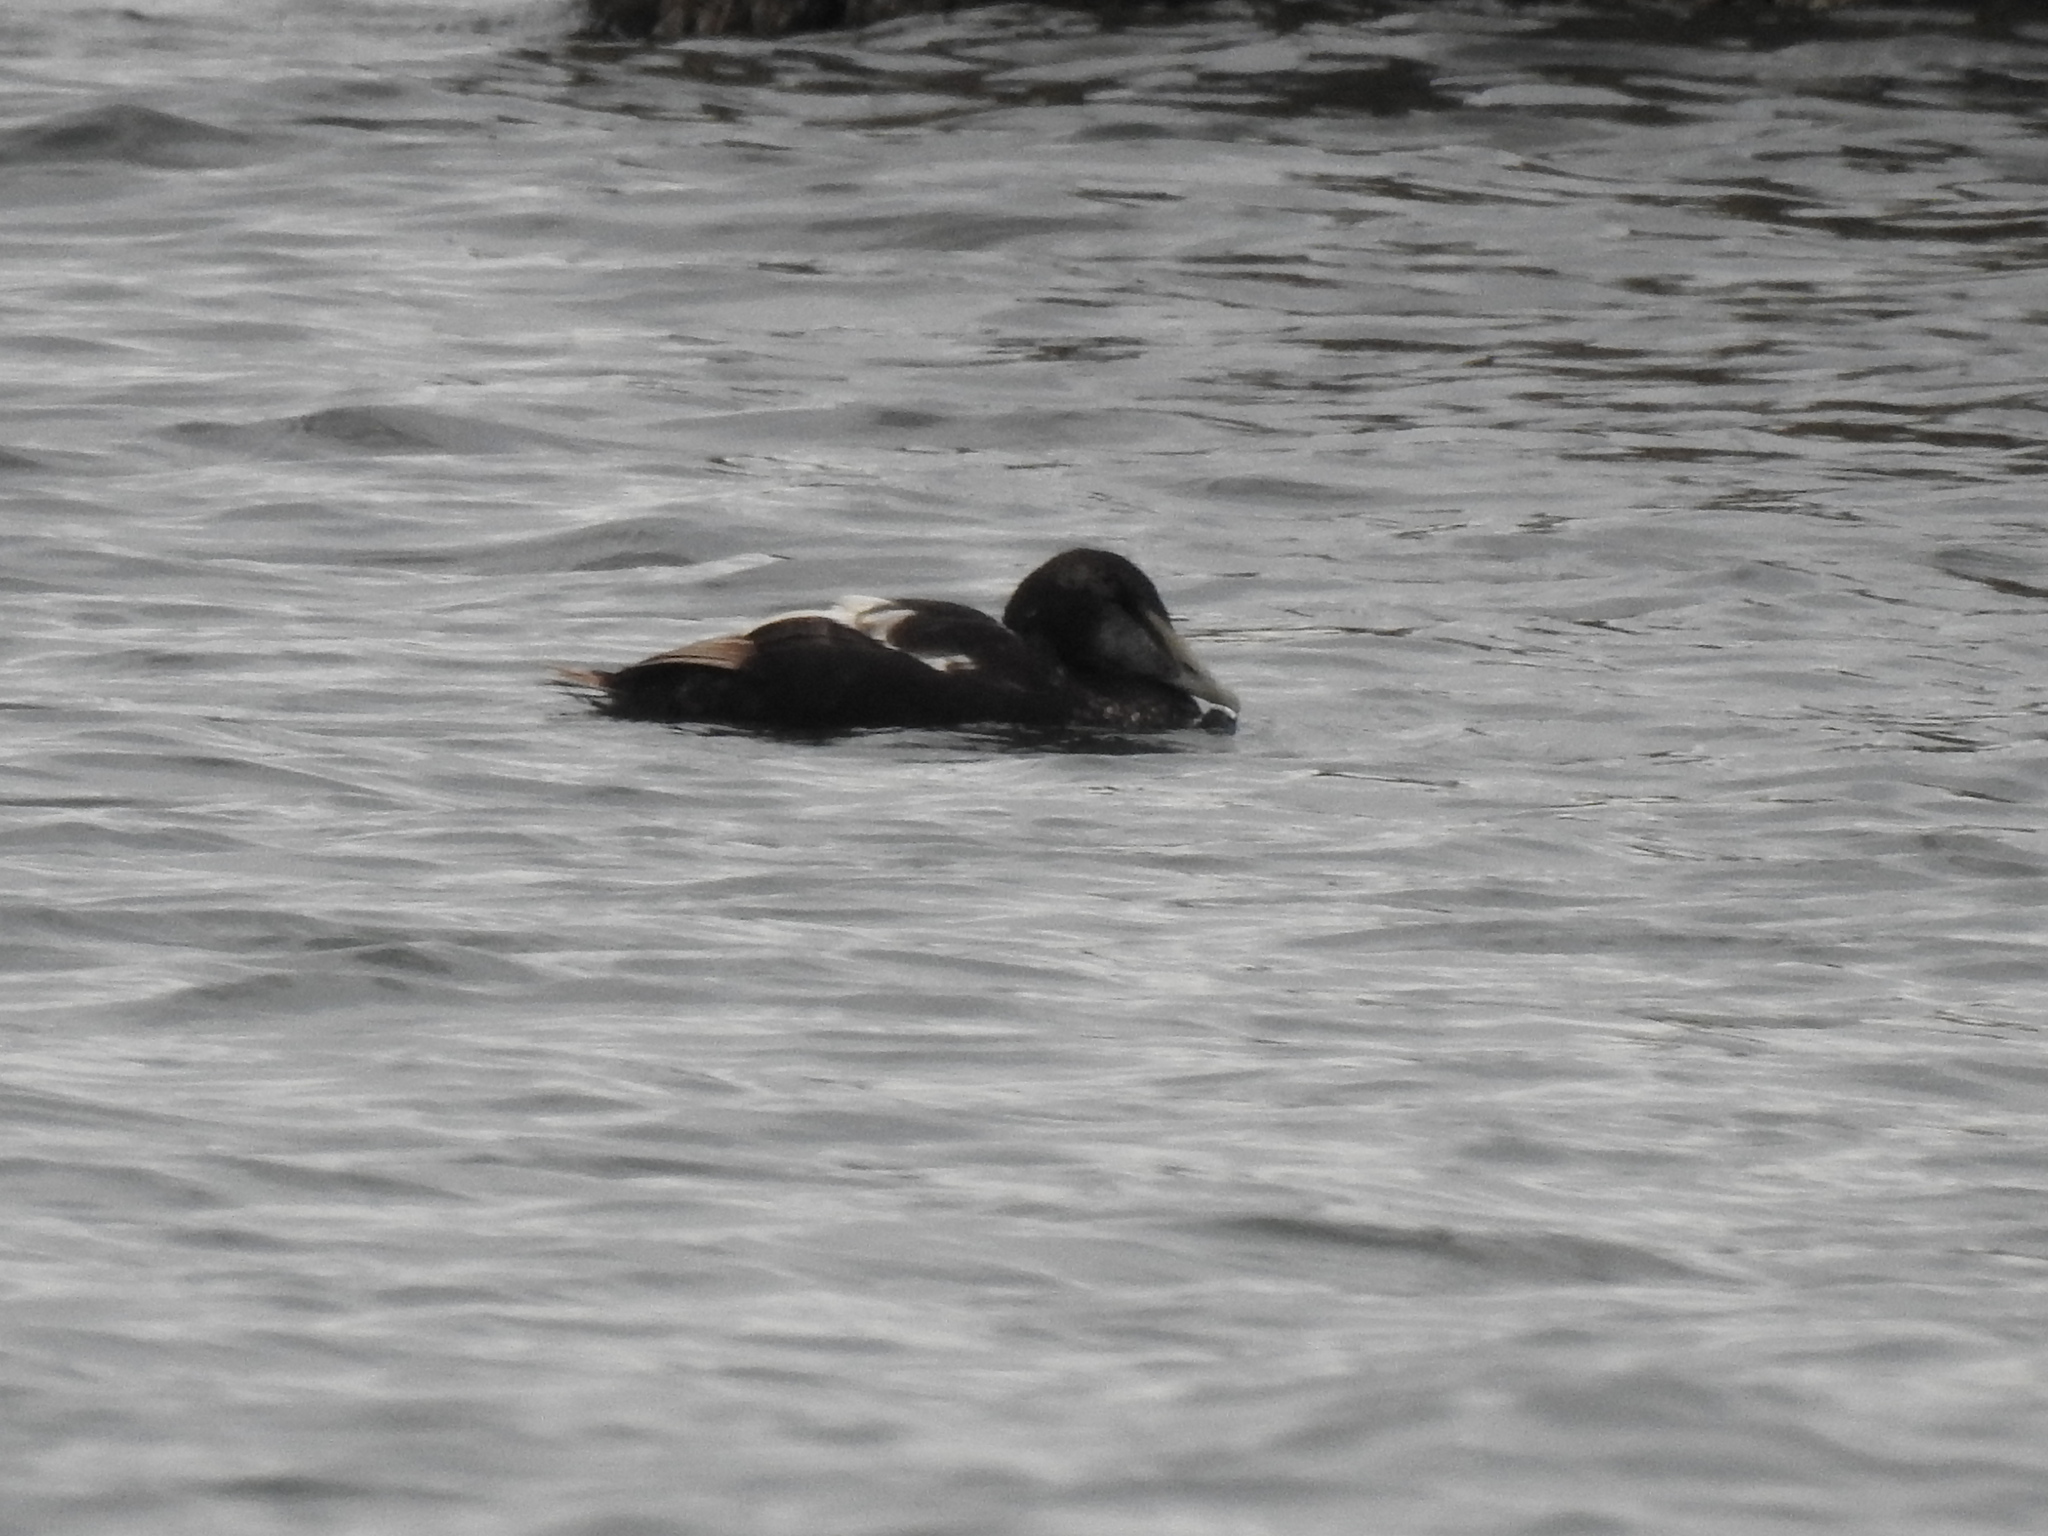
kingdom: Animalia
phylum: Chordata
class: Aves
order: Anseriformes
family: Anatidae
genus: Somateria
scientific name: Somateria mollissima
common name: Common eider
